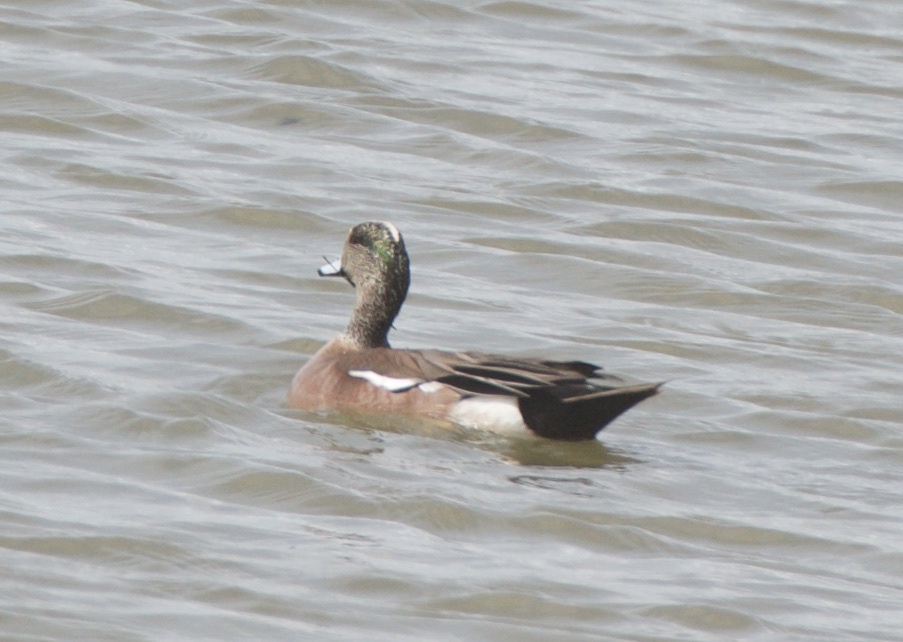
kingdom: Animalia
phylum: Chordata
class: Aves
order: Anseriformes
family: Anatidae
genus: Mareca
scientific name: Mareca americana
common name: American wigeon
